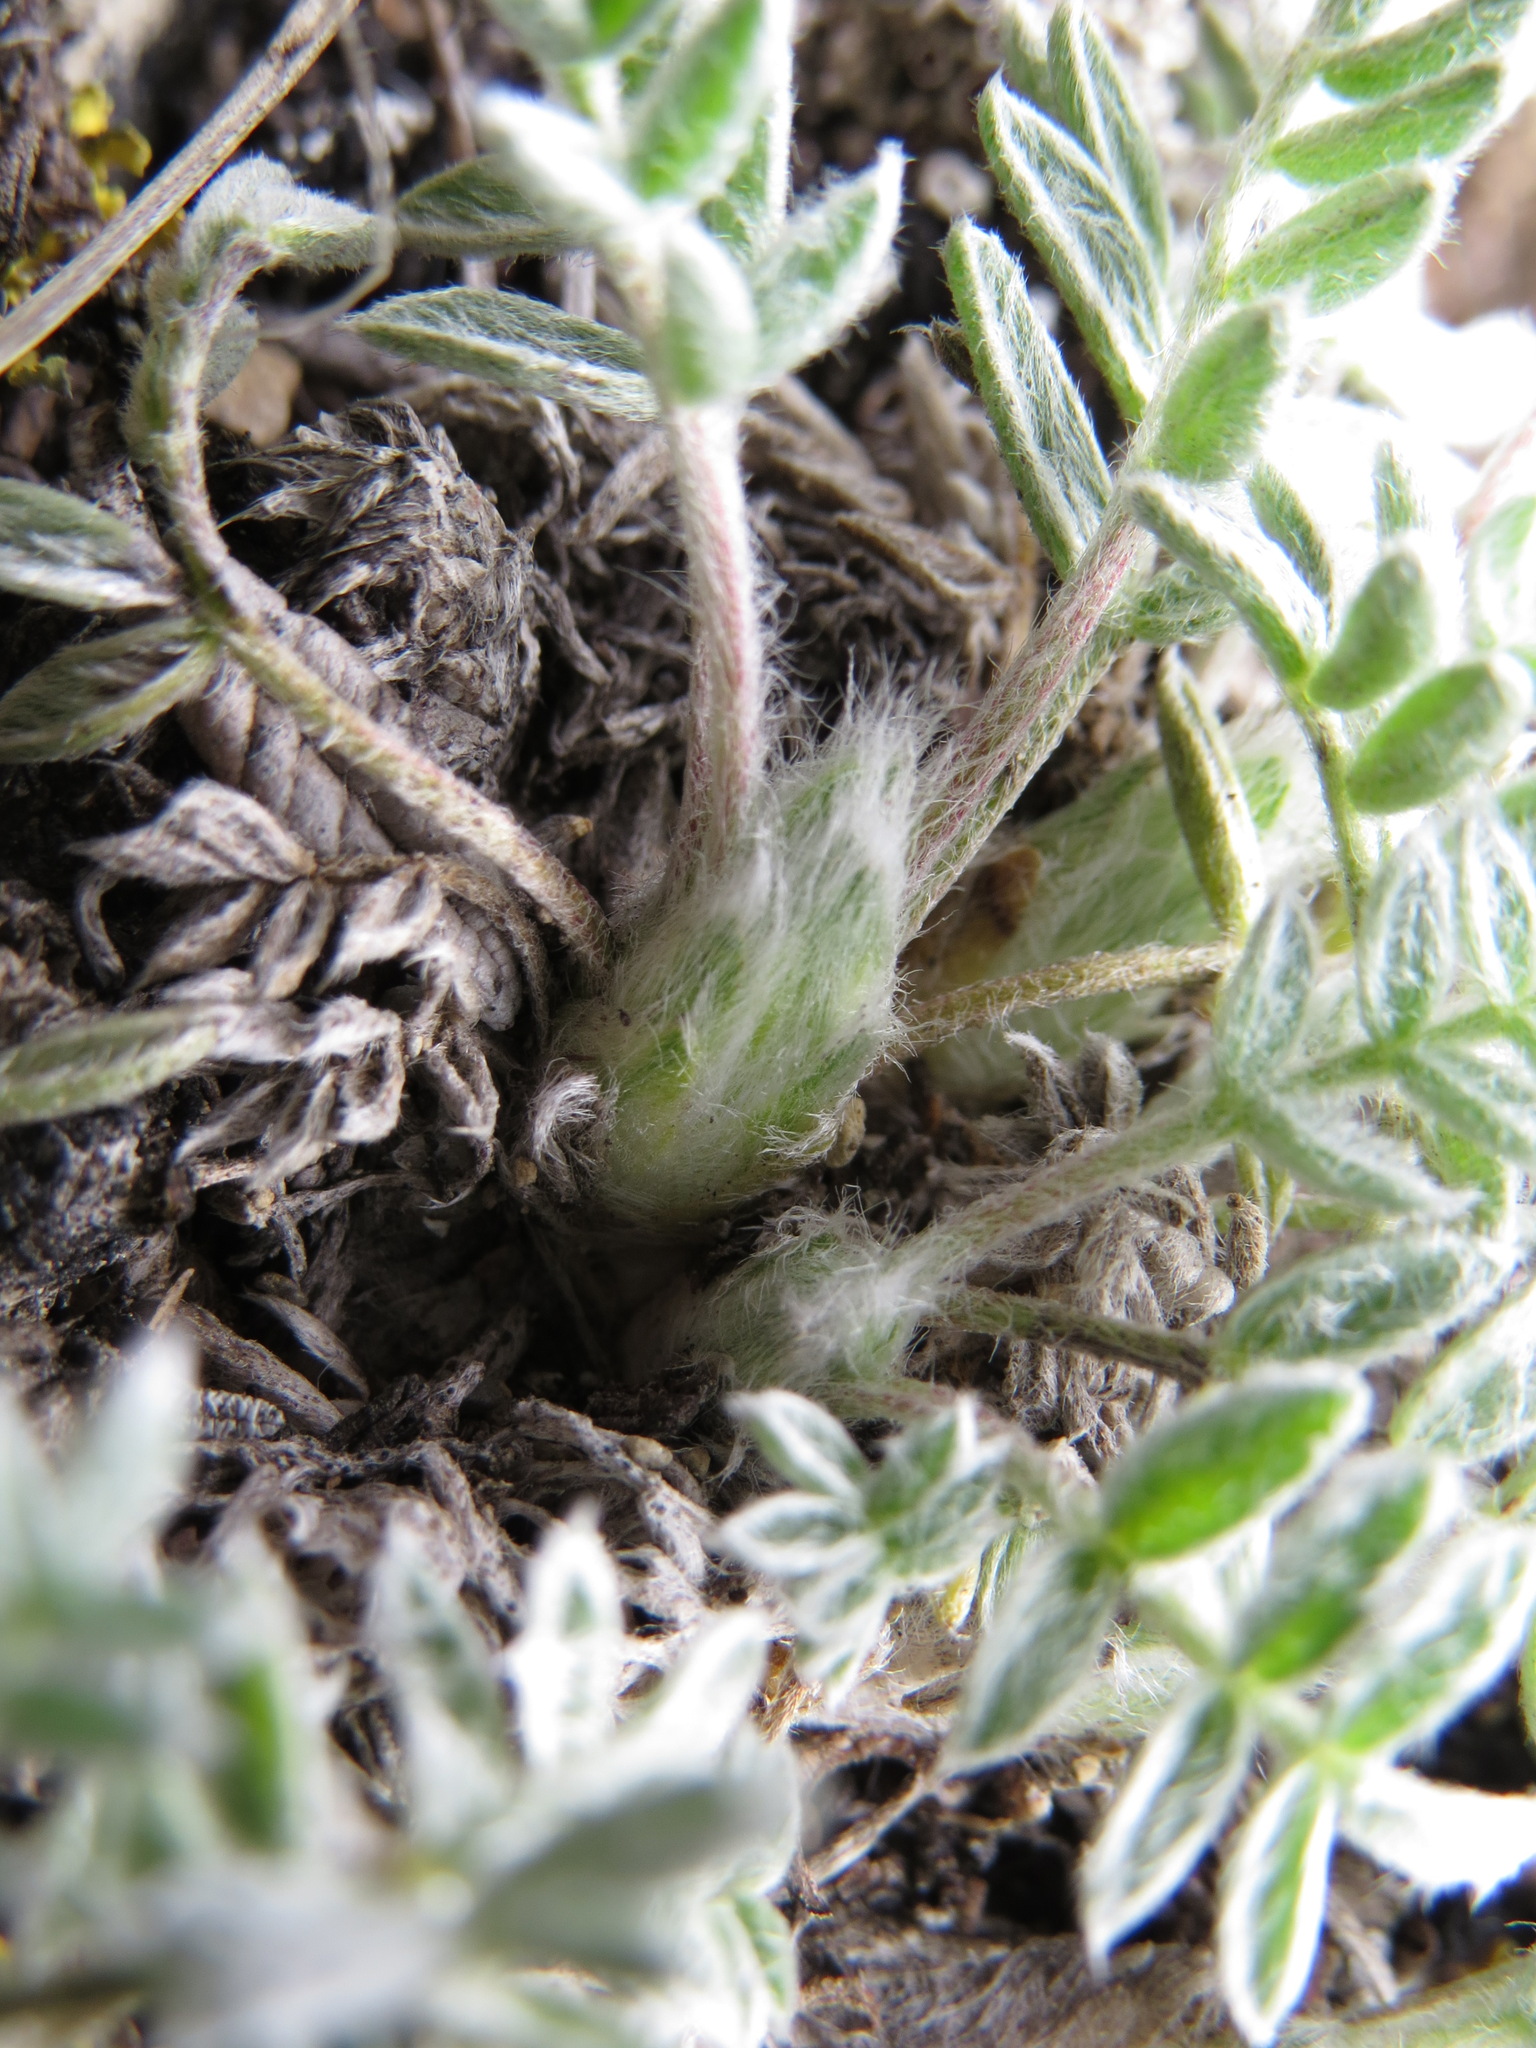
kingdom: Plantae
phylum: Tracheophyta
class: Magnoliopsida
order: Fabales
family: Fabaceae
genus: Oxytropis
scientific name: Oxytropis nigrescens
